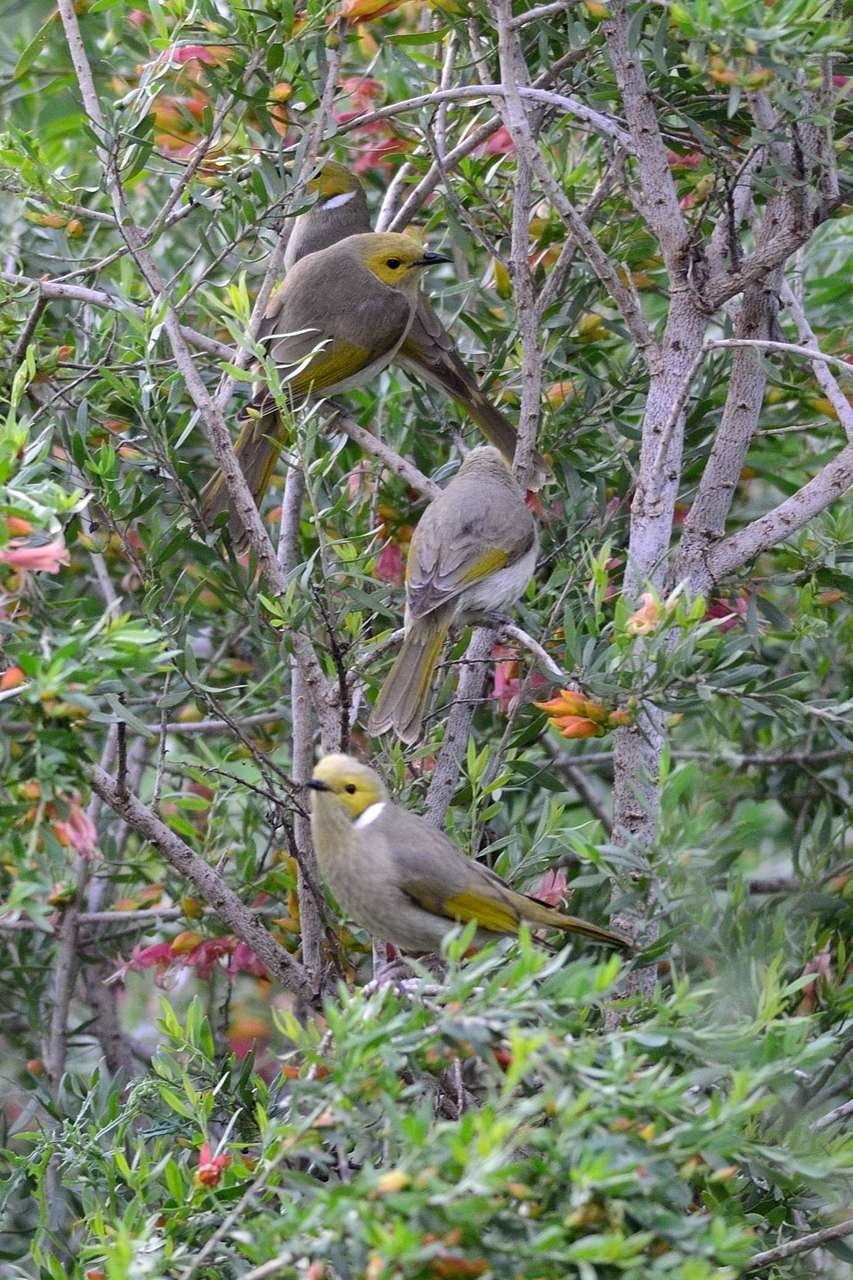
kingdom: Animalia
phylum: Chordata
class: Aves
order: Passeriformes
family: Meliphagidae
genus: Ptilotula
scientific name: Ptilotula penicillata
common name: White-plumed honeyeater
